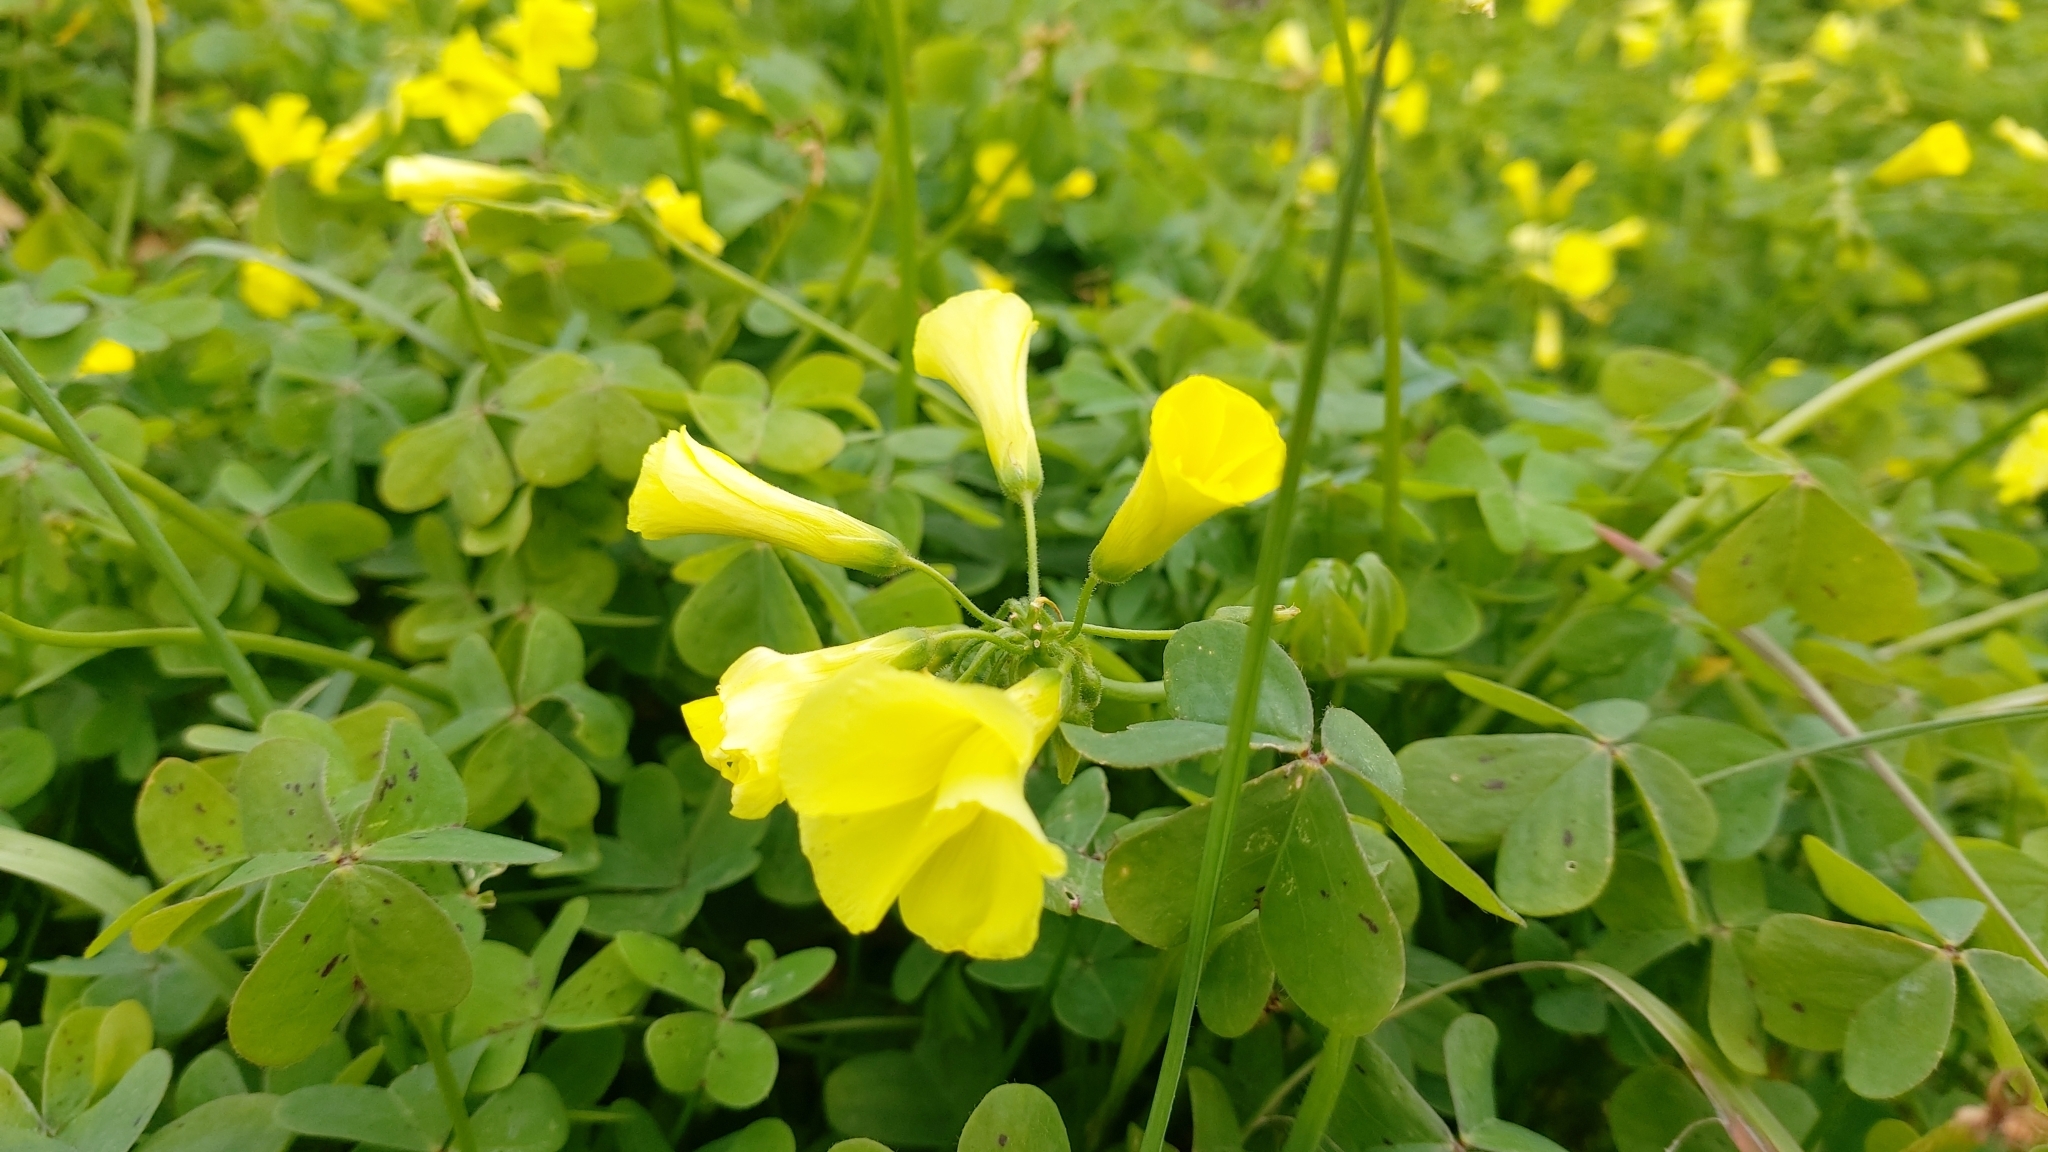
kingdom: Plantae
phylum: Tracheophyta
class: Magnoliopsida
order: Oxalidales
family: Oxalidaceae
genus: Oxalis
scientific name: Oxalis pes-caprae
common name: Bermuda-buttercup
